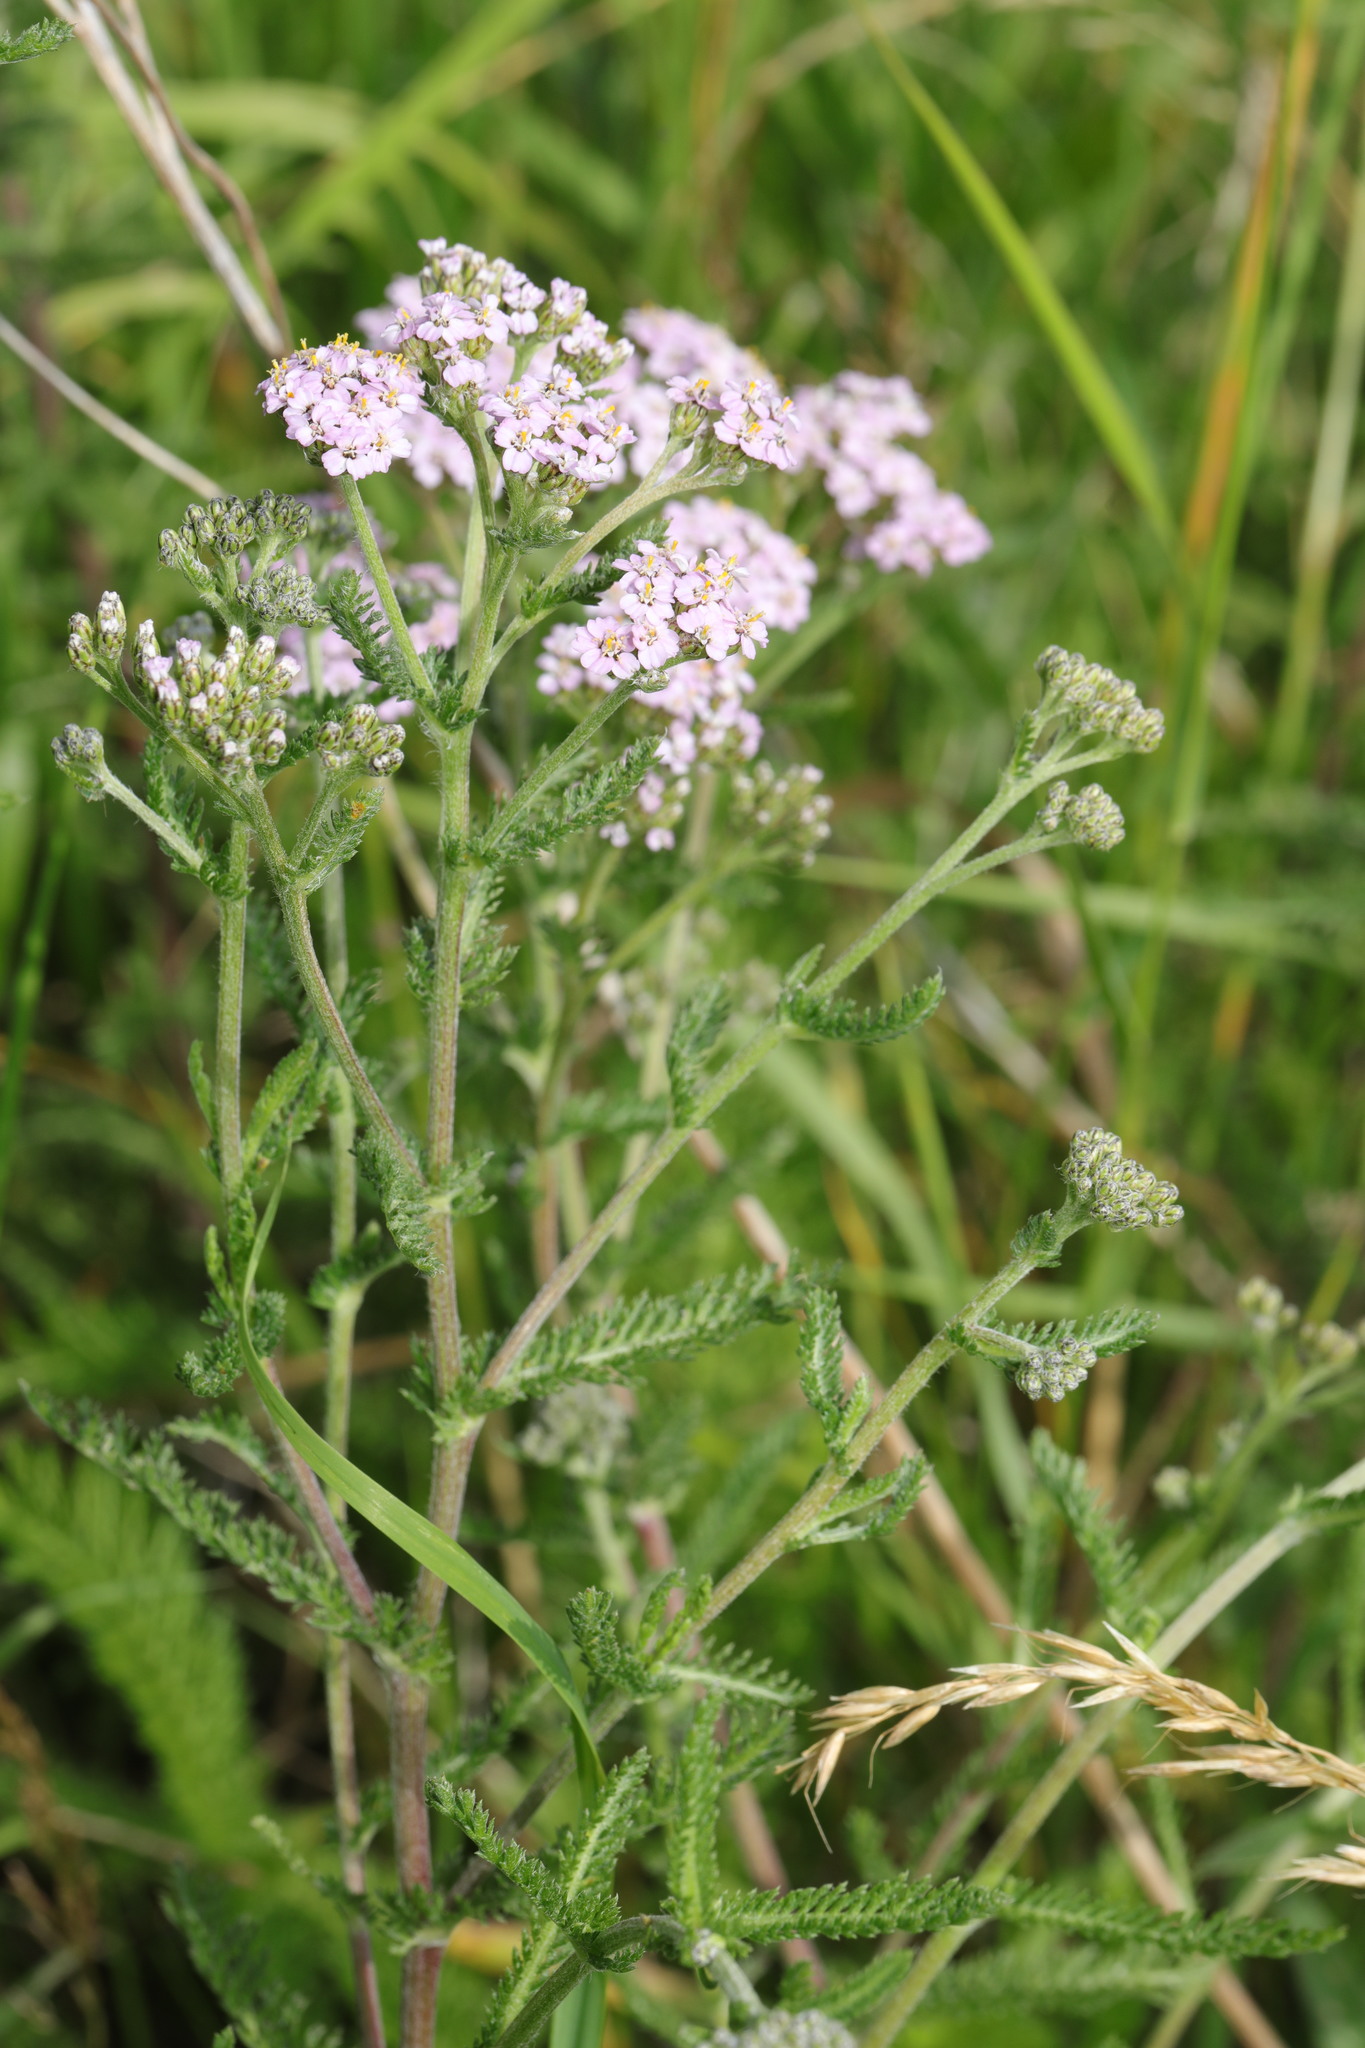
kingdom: Plantae
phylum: Tracheophyta
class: Magnoliopsida
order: Asterales
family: Asteraceae
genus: Achillea
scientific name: Achillea millefolium
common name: Yarrow
